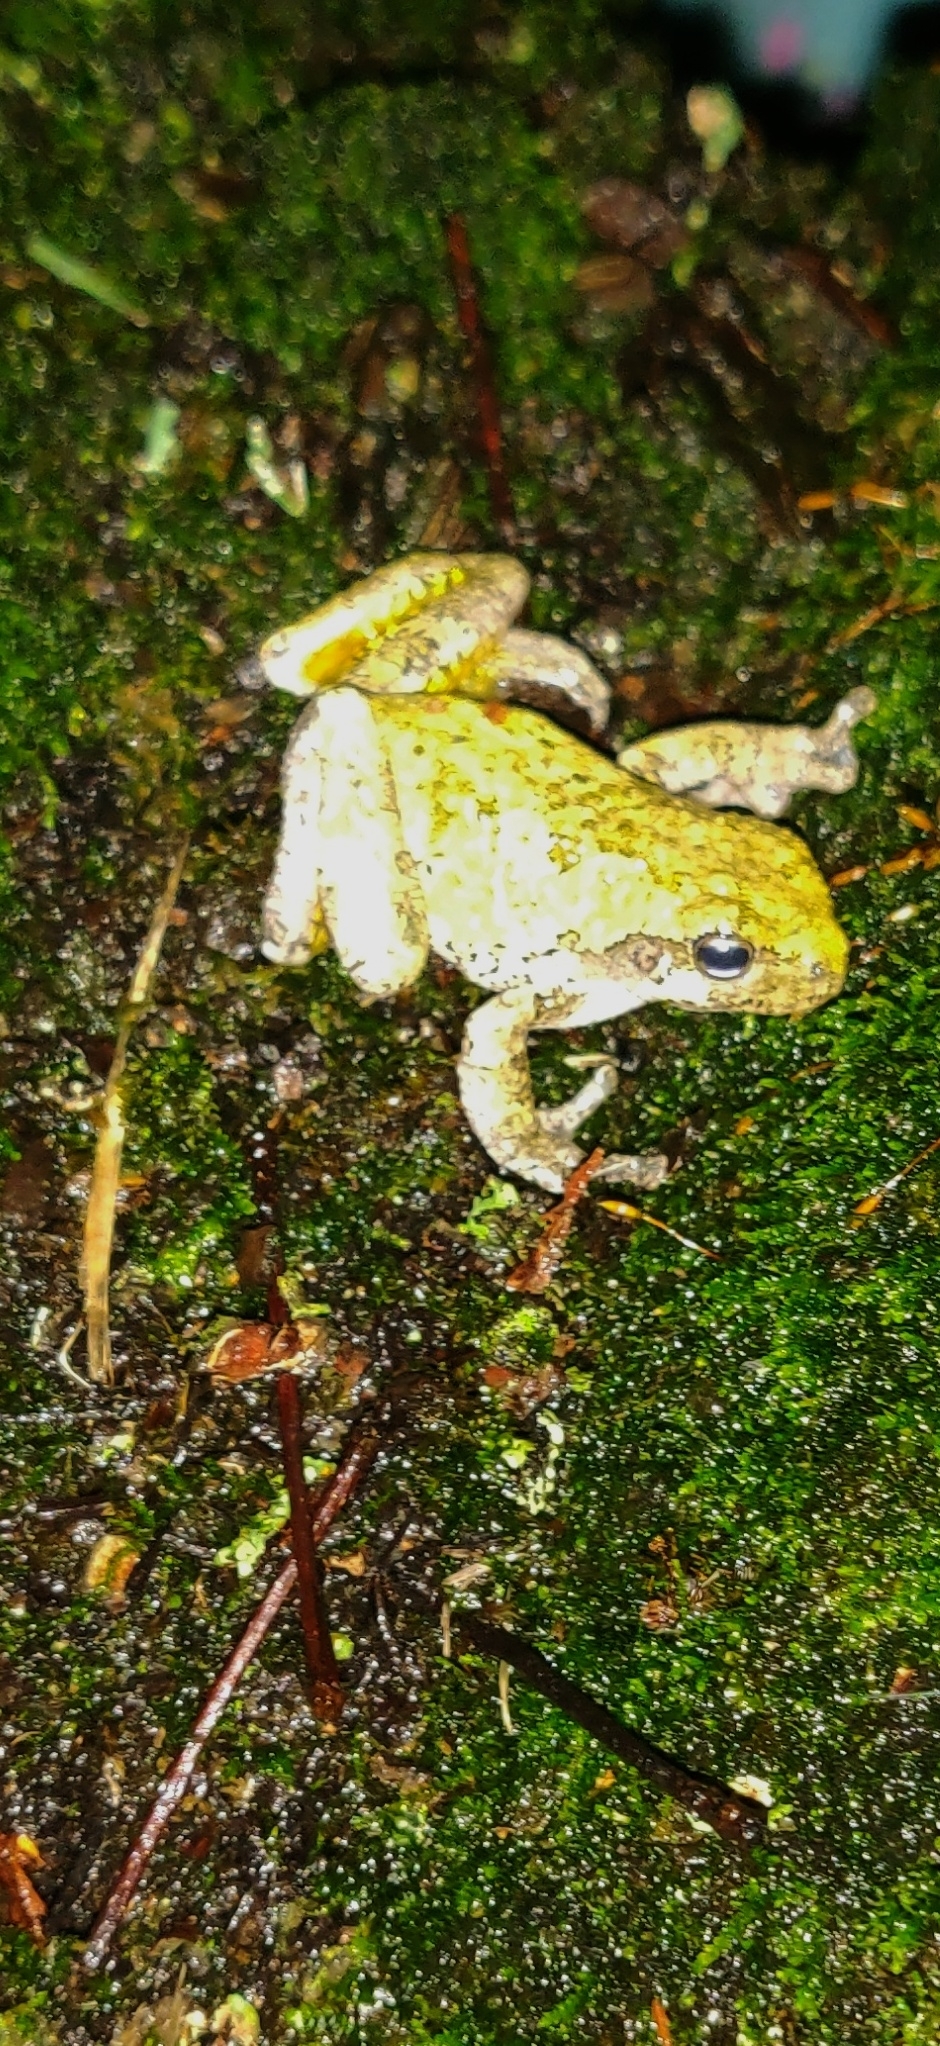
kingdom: Animalia
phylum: Chordata
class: Amphibia
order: Anura
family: Hylidae
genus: Hyla
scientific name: Hyla
